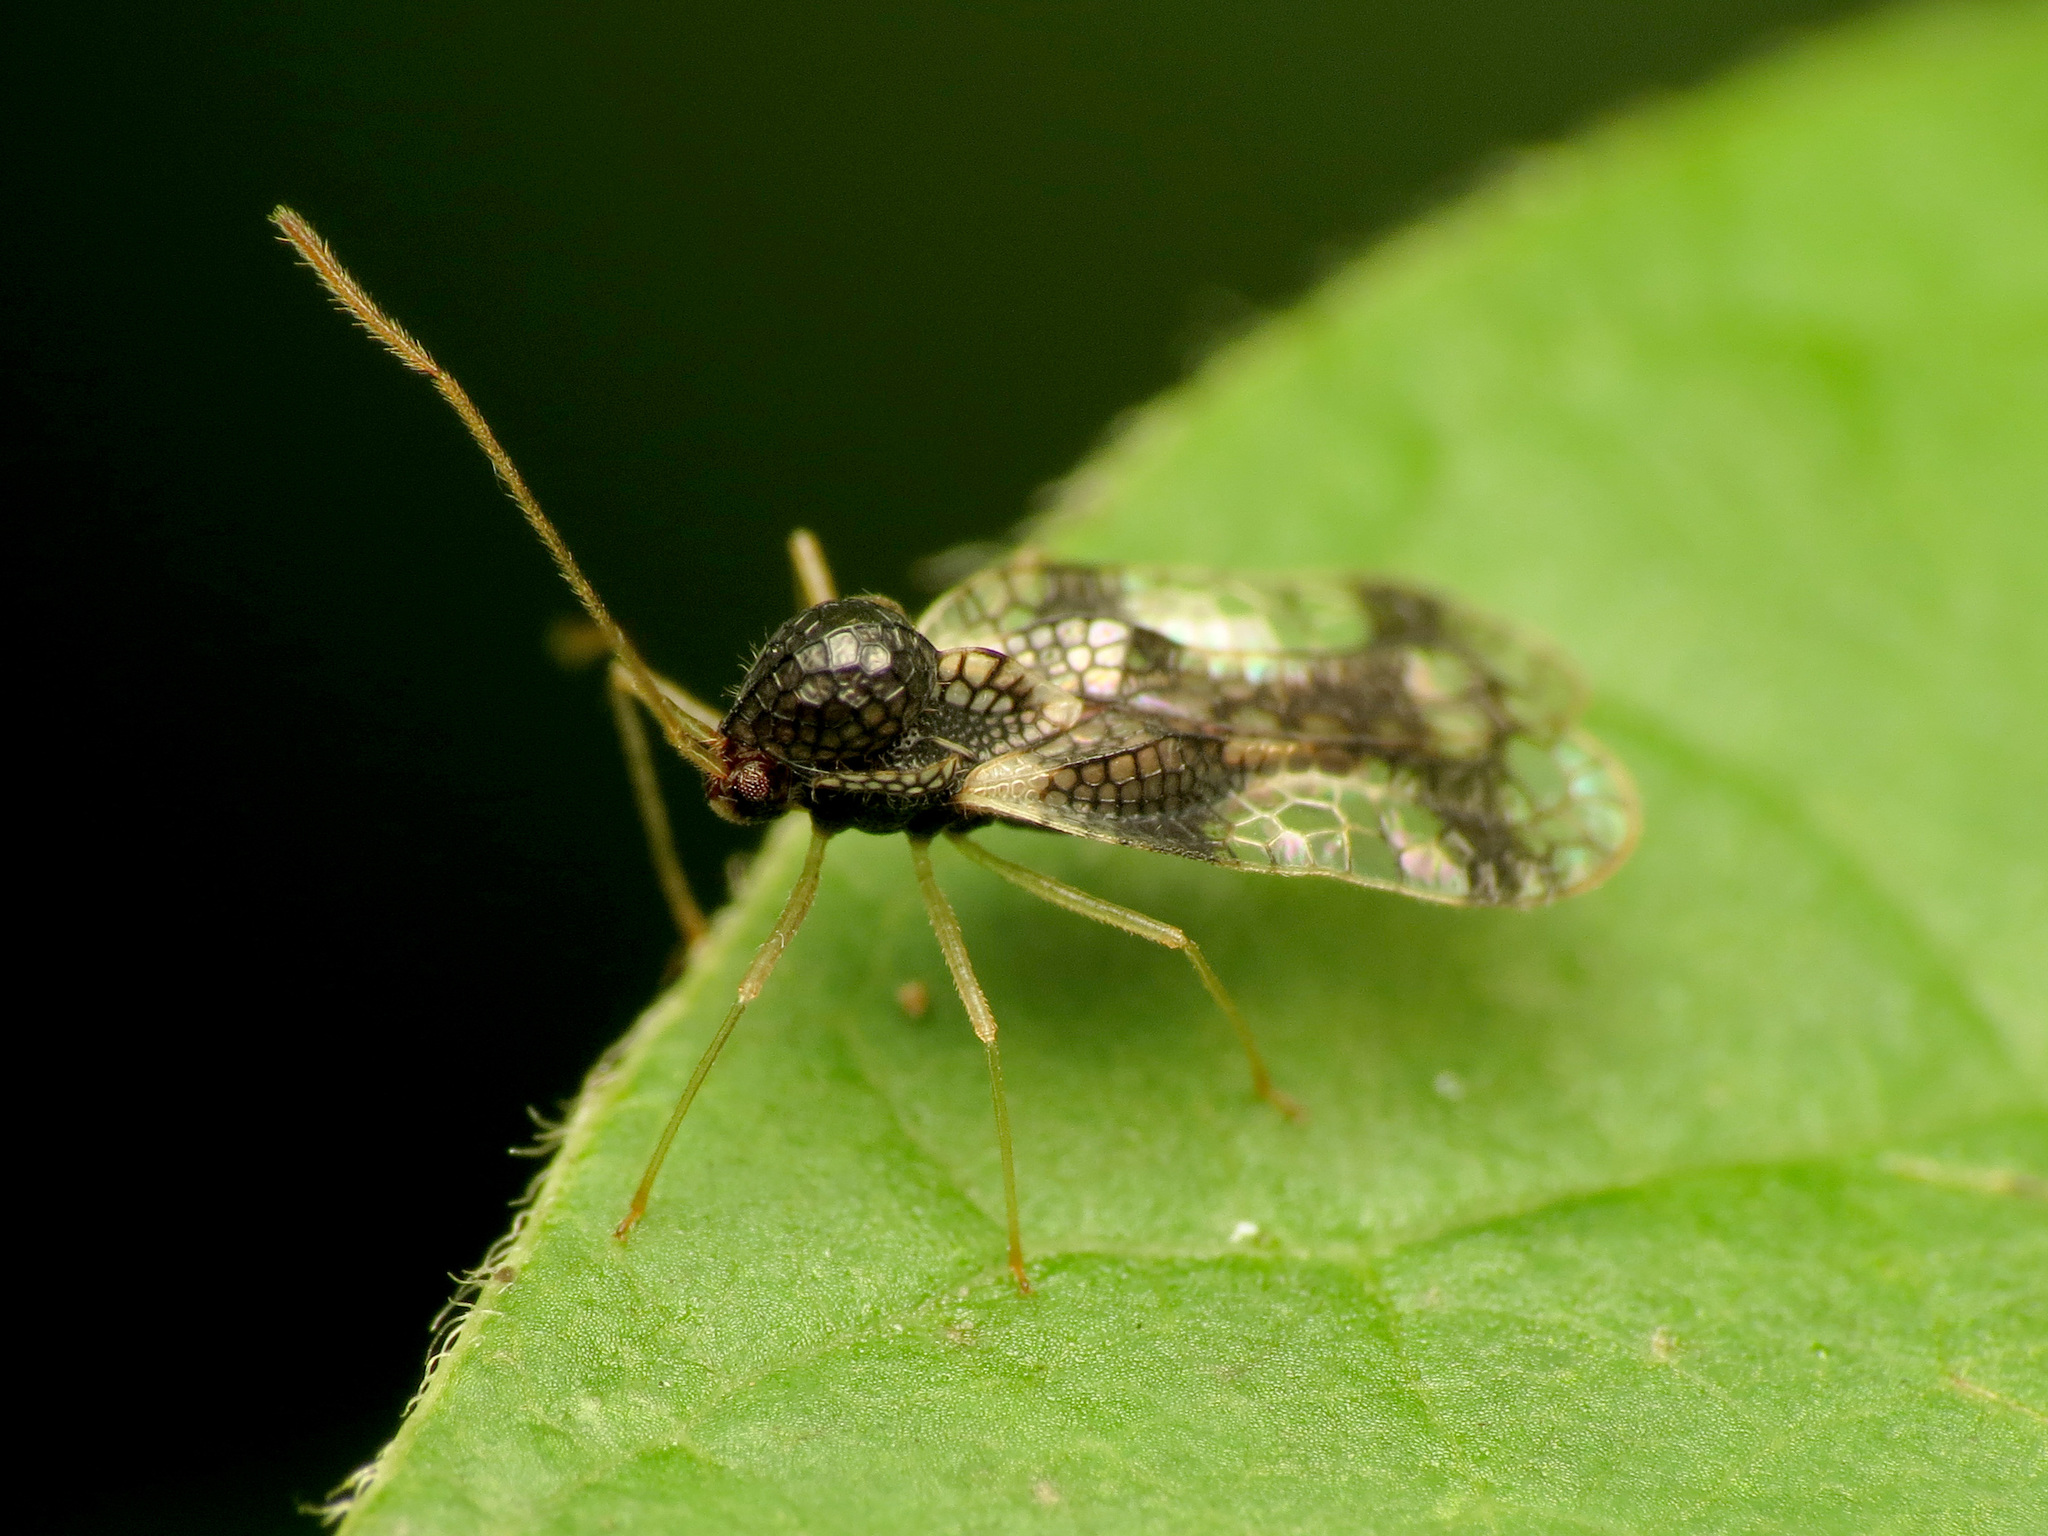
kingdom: Animalia
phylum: Arthropoda
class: Insecta
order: Hemiptera
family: Tingidae
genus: Stephanitis
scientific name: Stephanitis takeyai
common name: Andromeda lacebug
